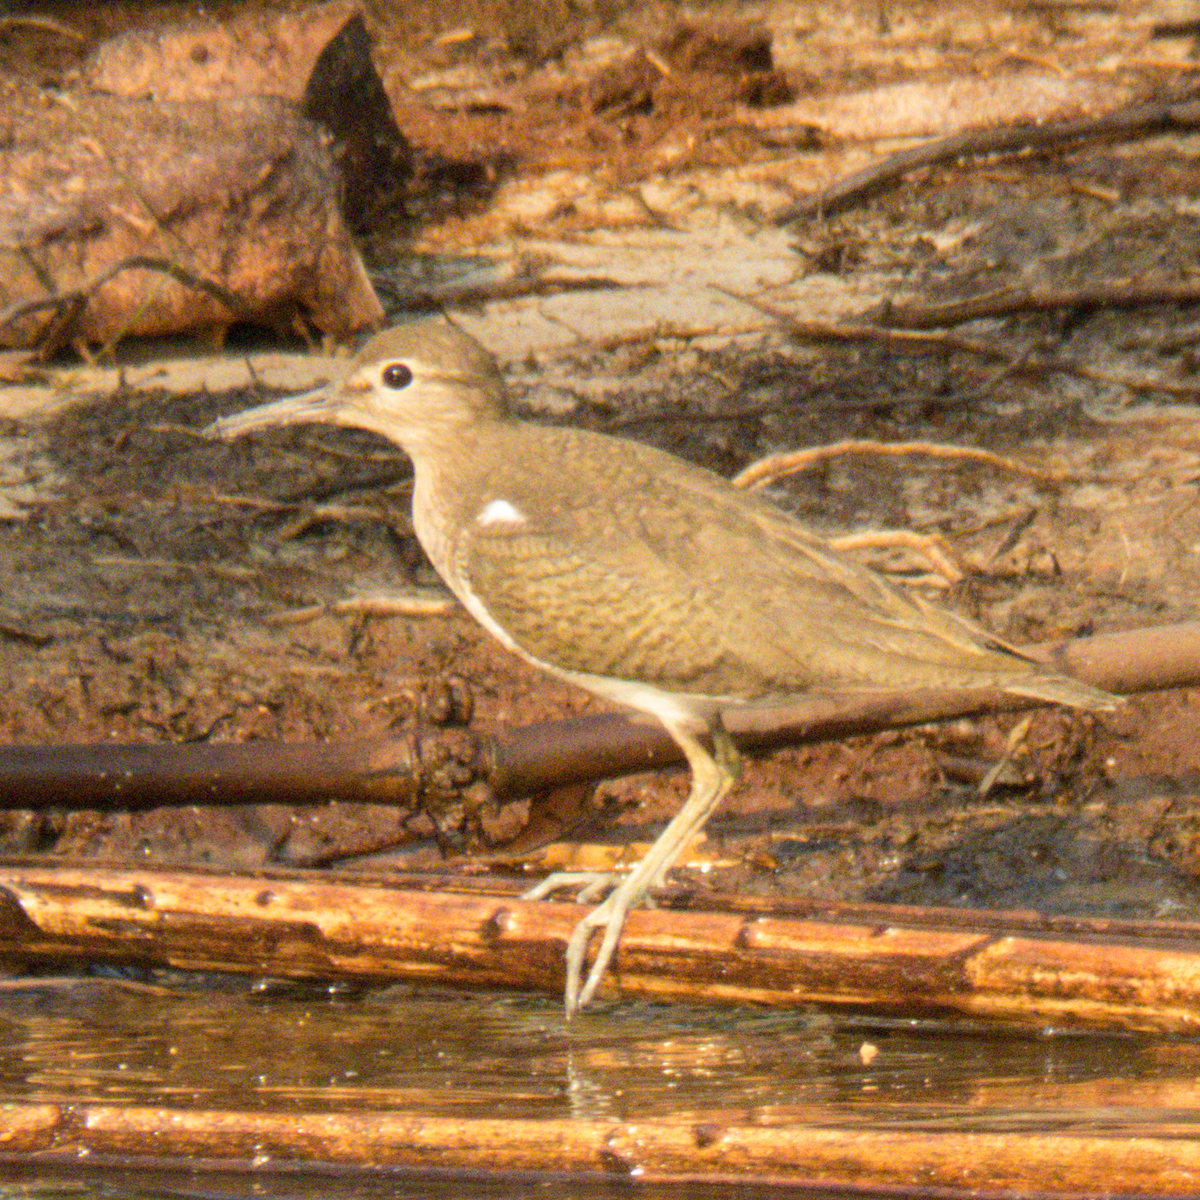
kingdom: Animalia
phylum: Chordata
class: Aves
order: Charadriiformes
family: Scolopacidae
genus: Actitis
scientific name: Actitis hypoleucos
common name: Common sandpiper
